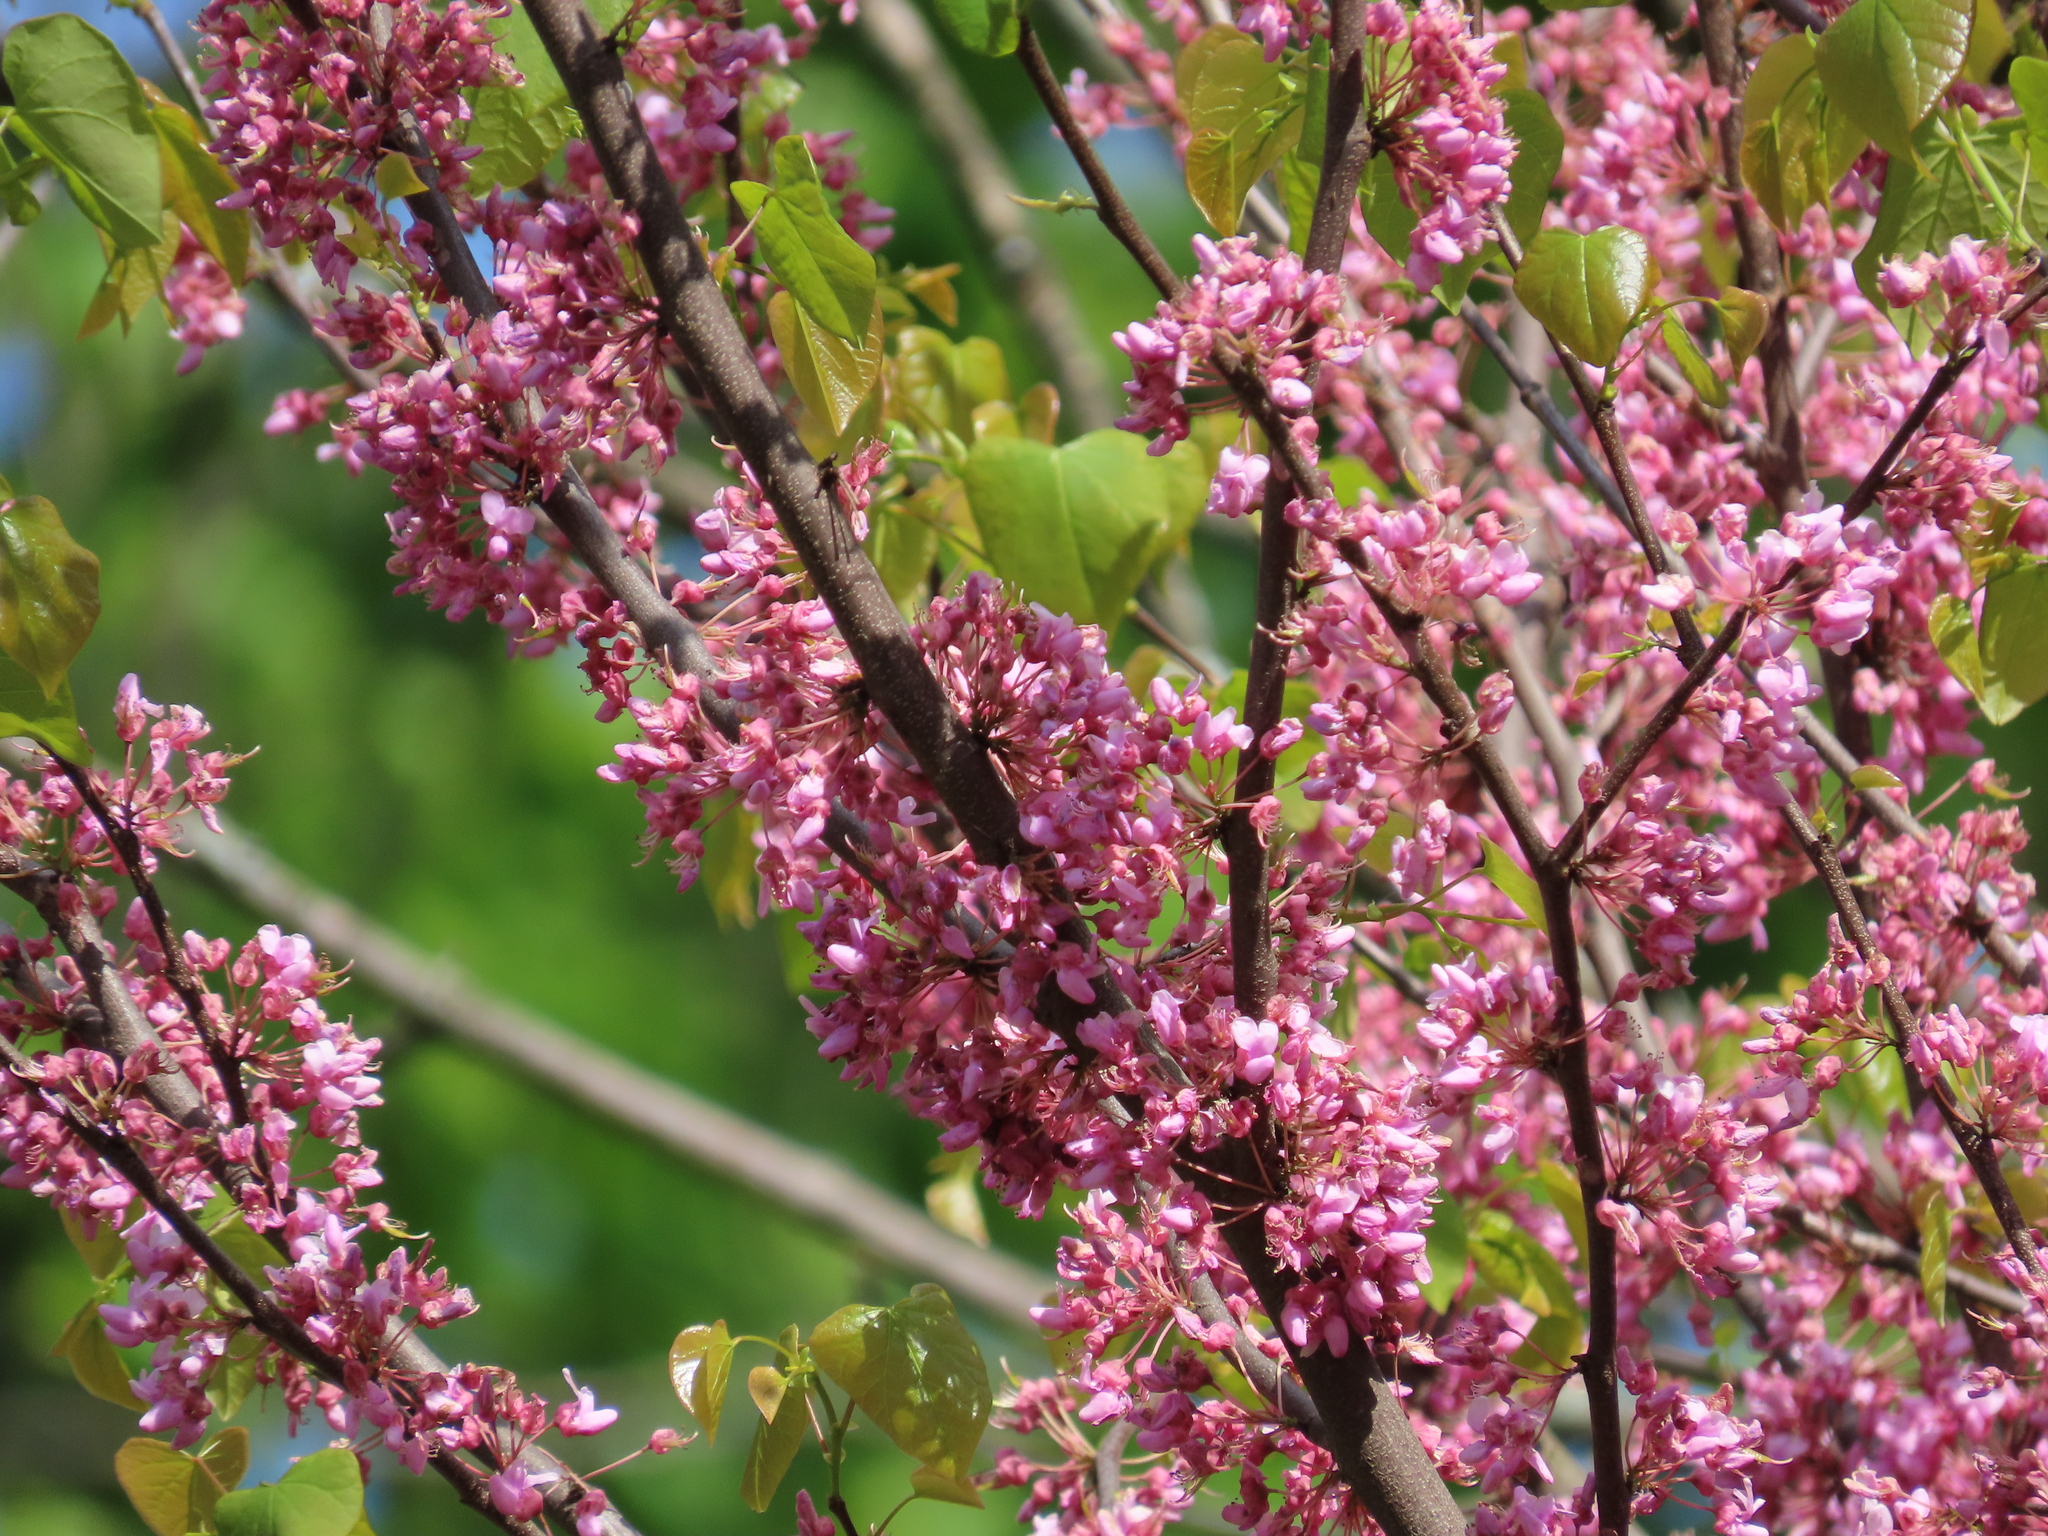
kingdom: Plantae
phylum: Tracheophyta
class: Magnoliopsida
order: Fabales
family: Fabaceae
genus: Cercis
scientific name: Cercis canadensis
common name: Eastern redbud
